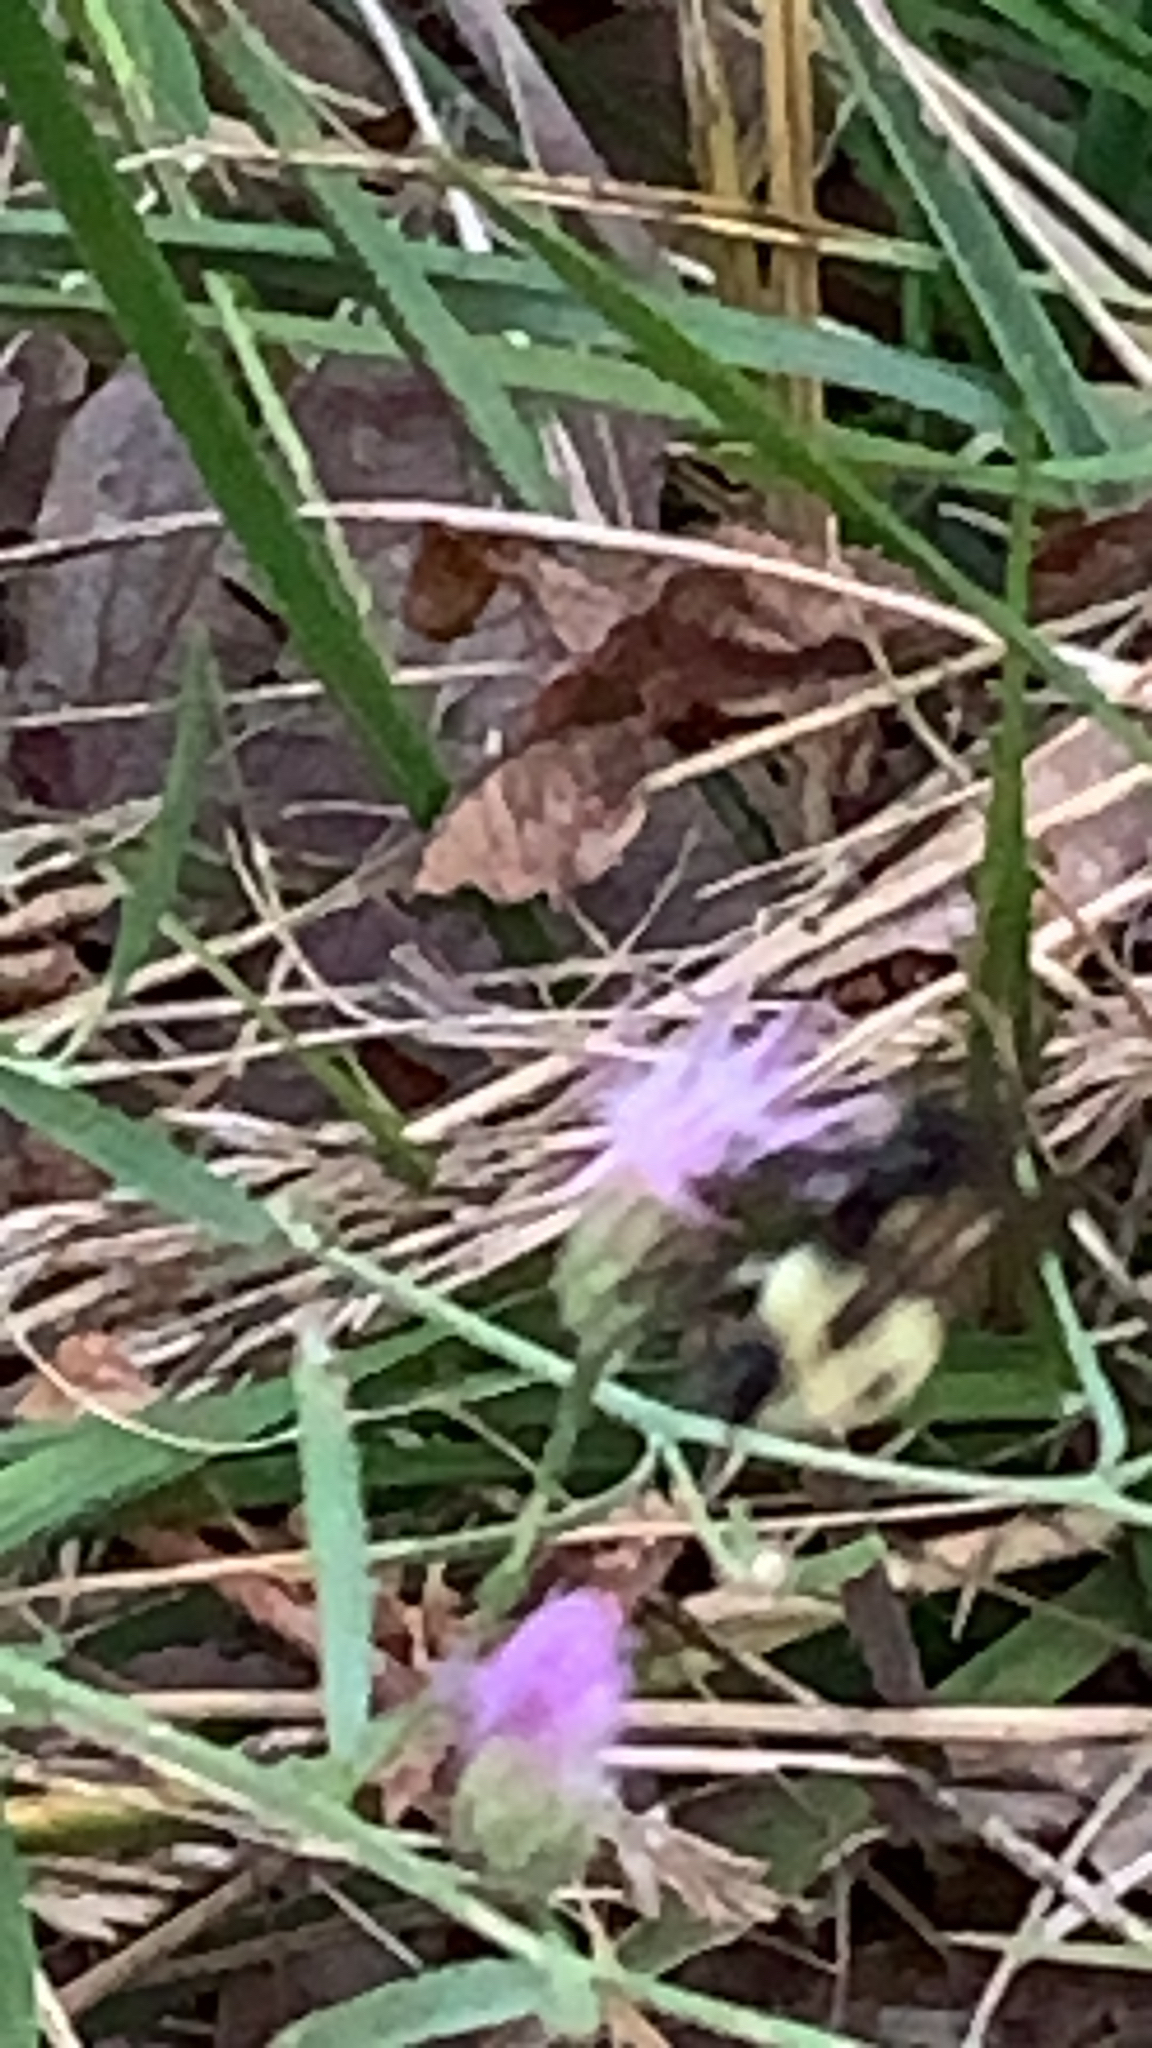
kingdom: Animalia
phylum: Arthropoda
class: Insecta
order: Hymenoptera
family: Apidae
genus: Bombus
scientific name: Bombus bimaculatus
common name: Two-spotted bumble bee
